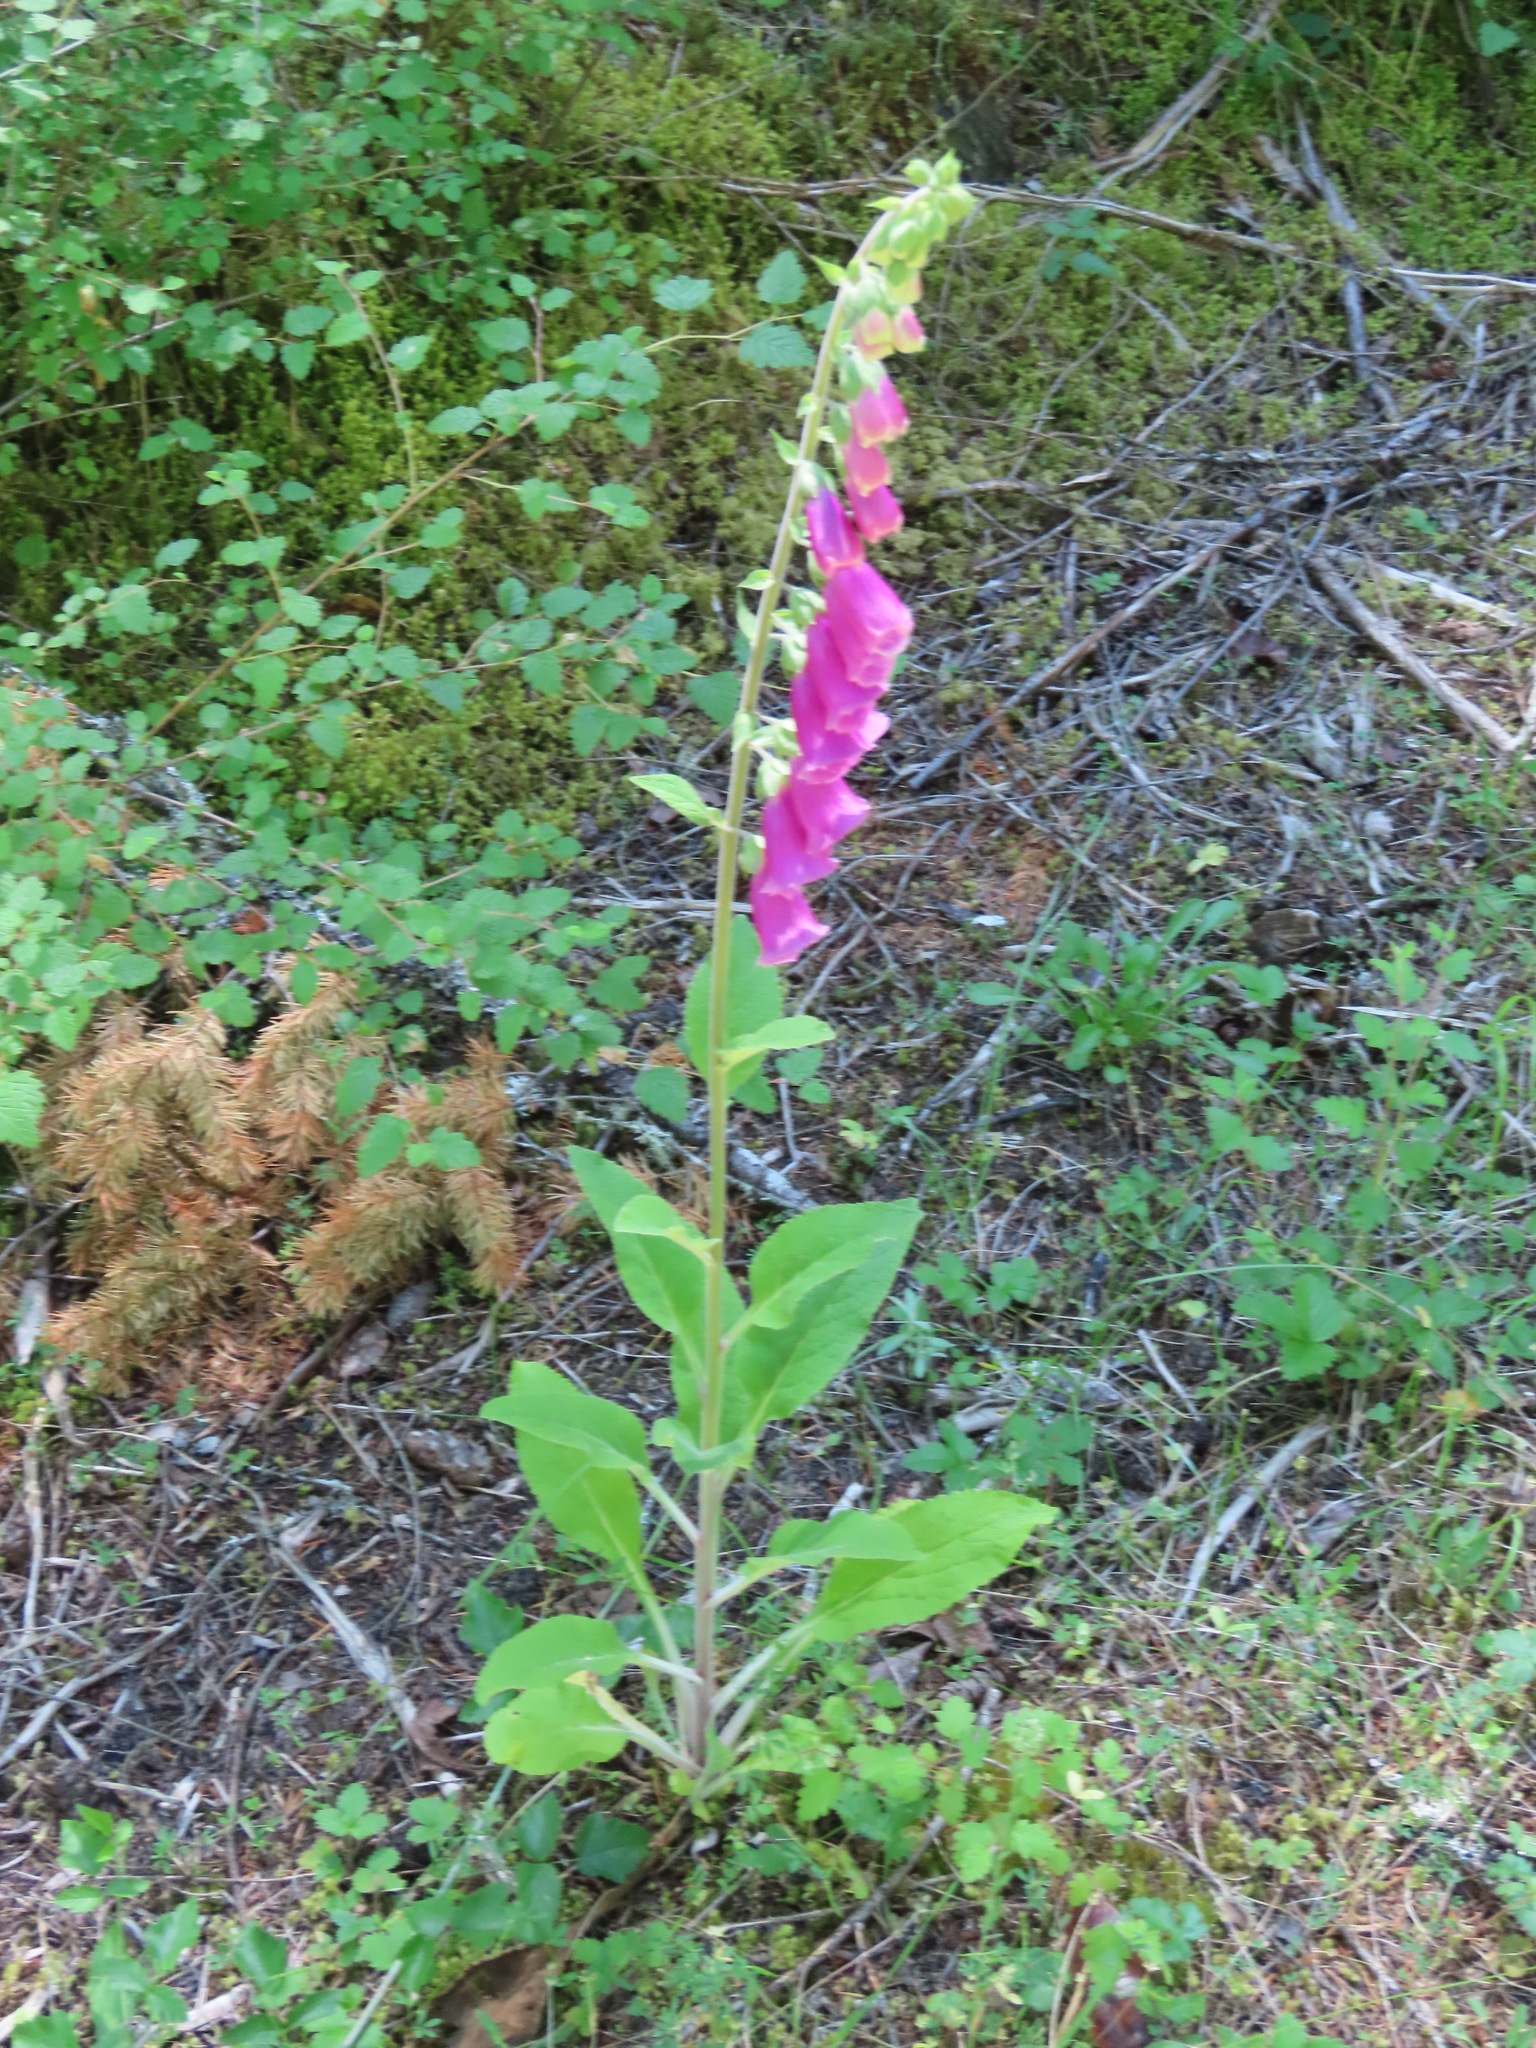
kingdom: Plantae
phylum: Tracheophyta
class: Magnoliopsida
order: Lamiales
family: Plantaginaceae
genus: Digitalis
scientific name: Digitalis purpurea
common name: Foxglove
